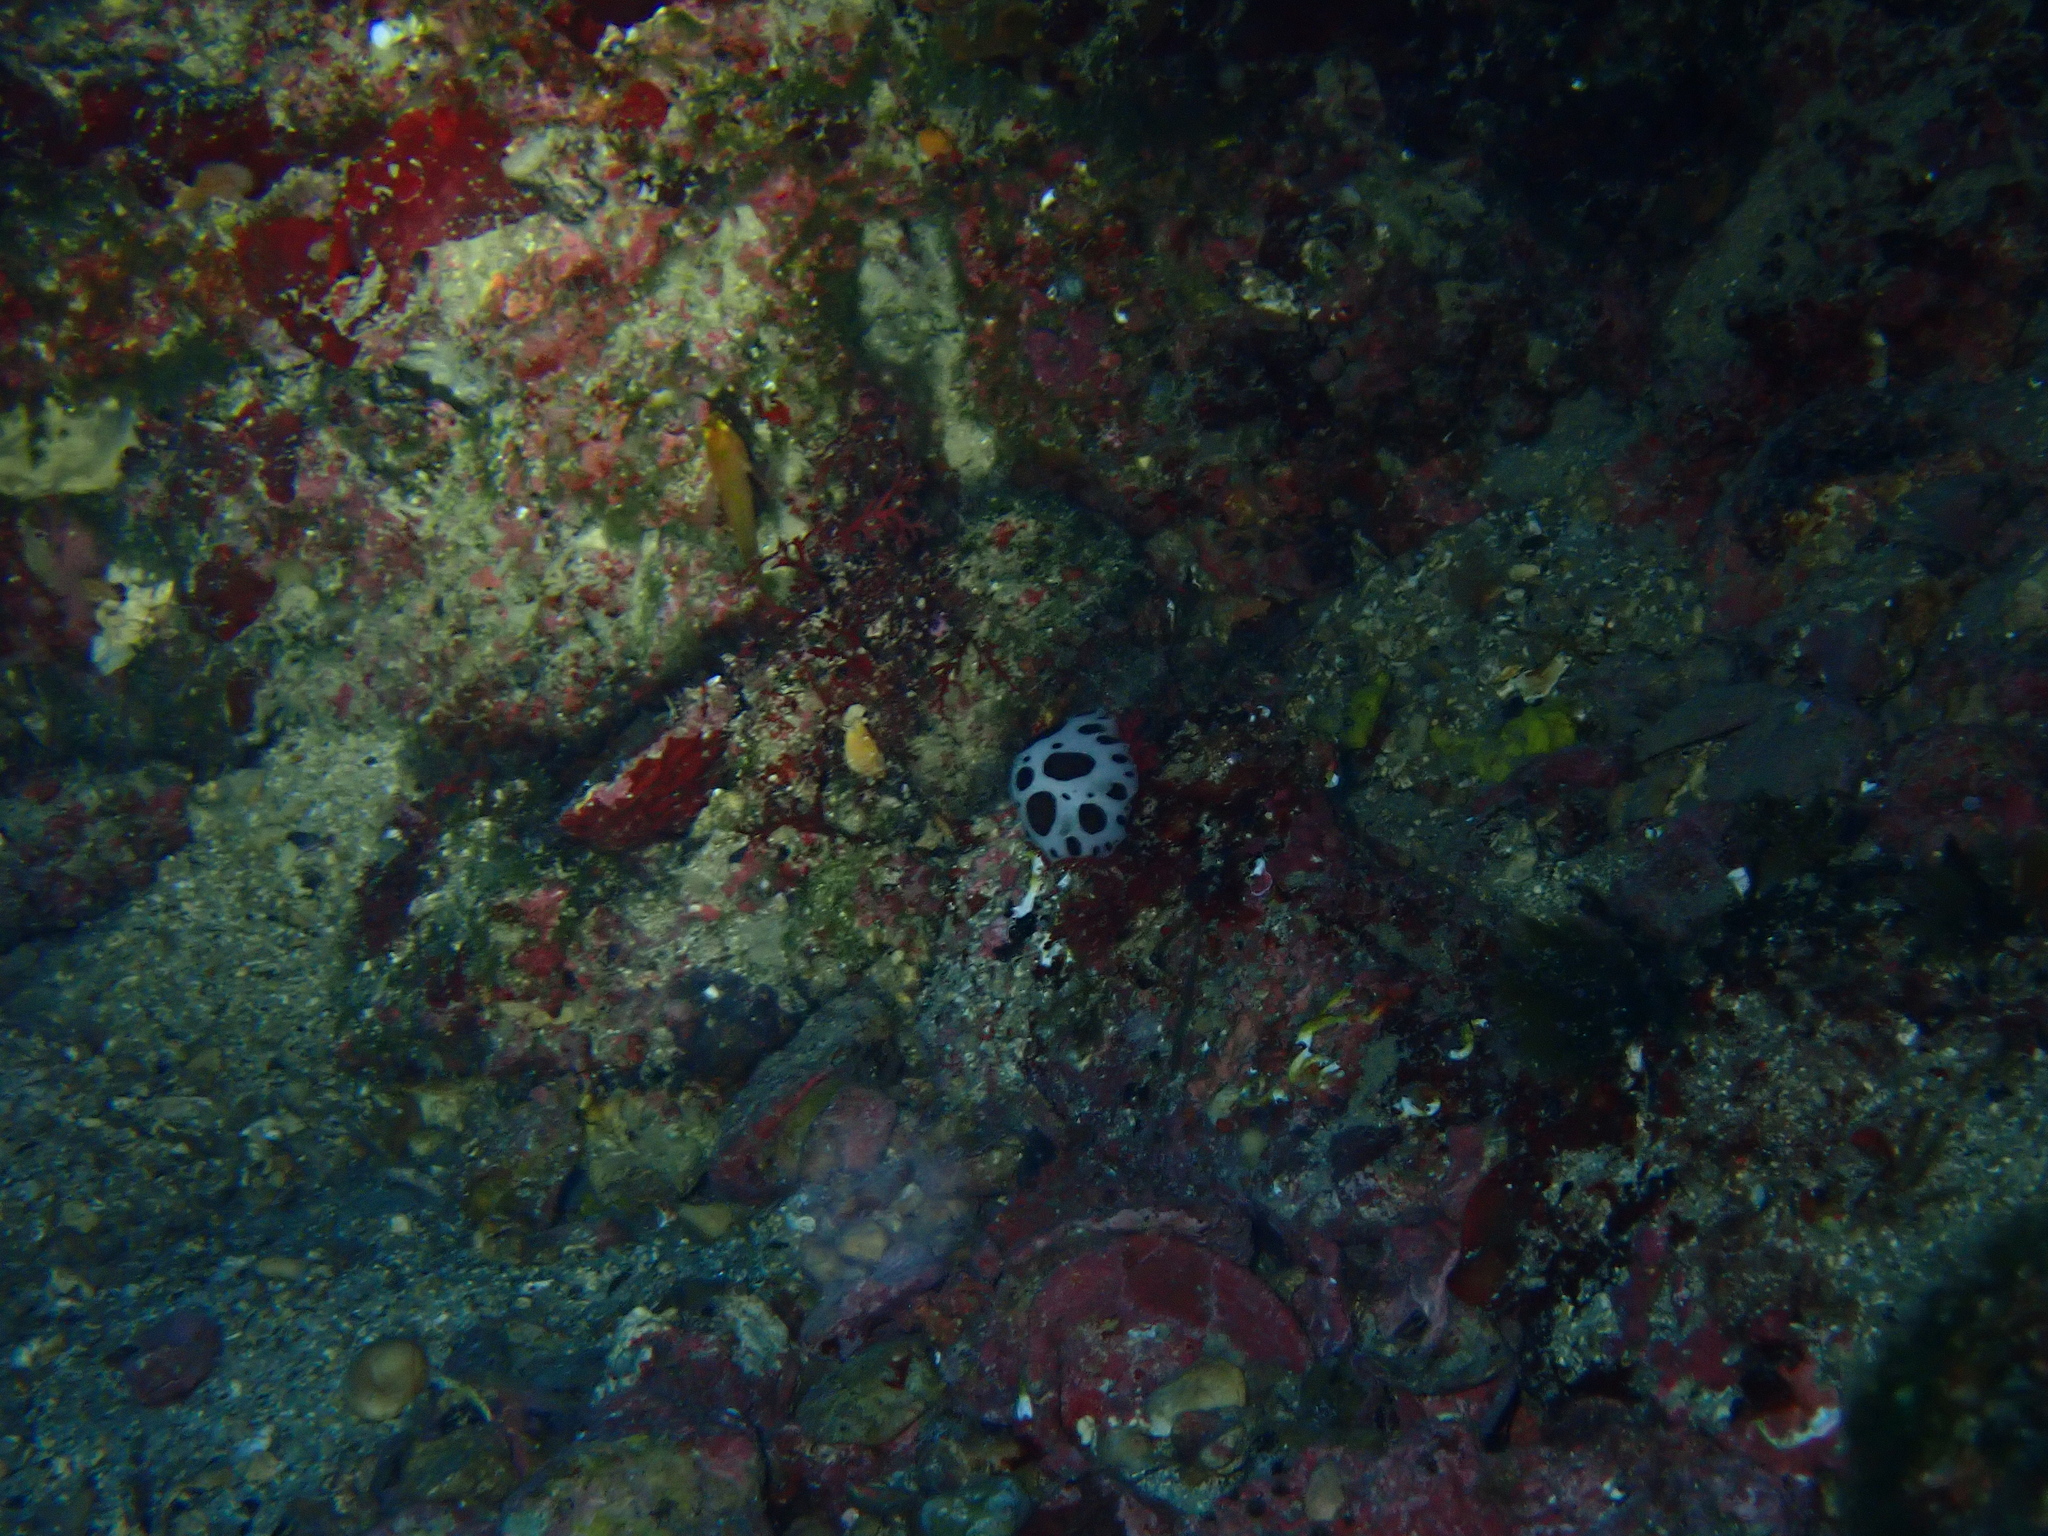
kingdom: Animalia
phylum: Mollusca
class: Gastropoda
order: Nudibranchia
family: Discodorididae
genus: Peltodoris
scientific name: Peltodoris atromaculata
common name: Swiss cow nudibranch
